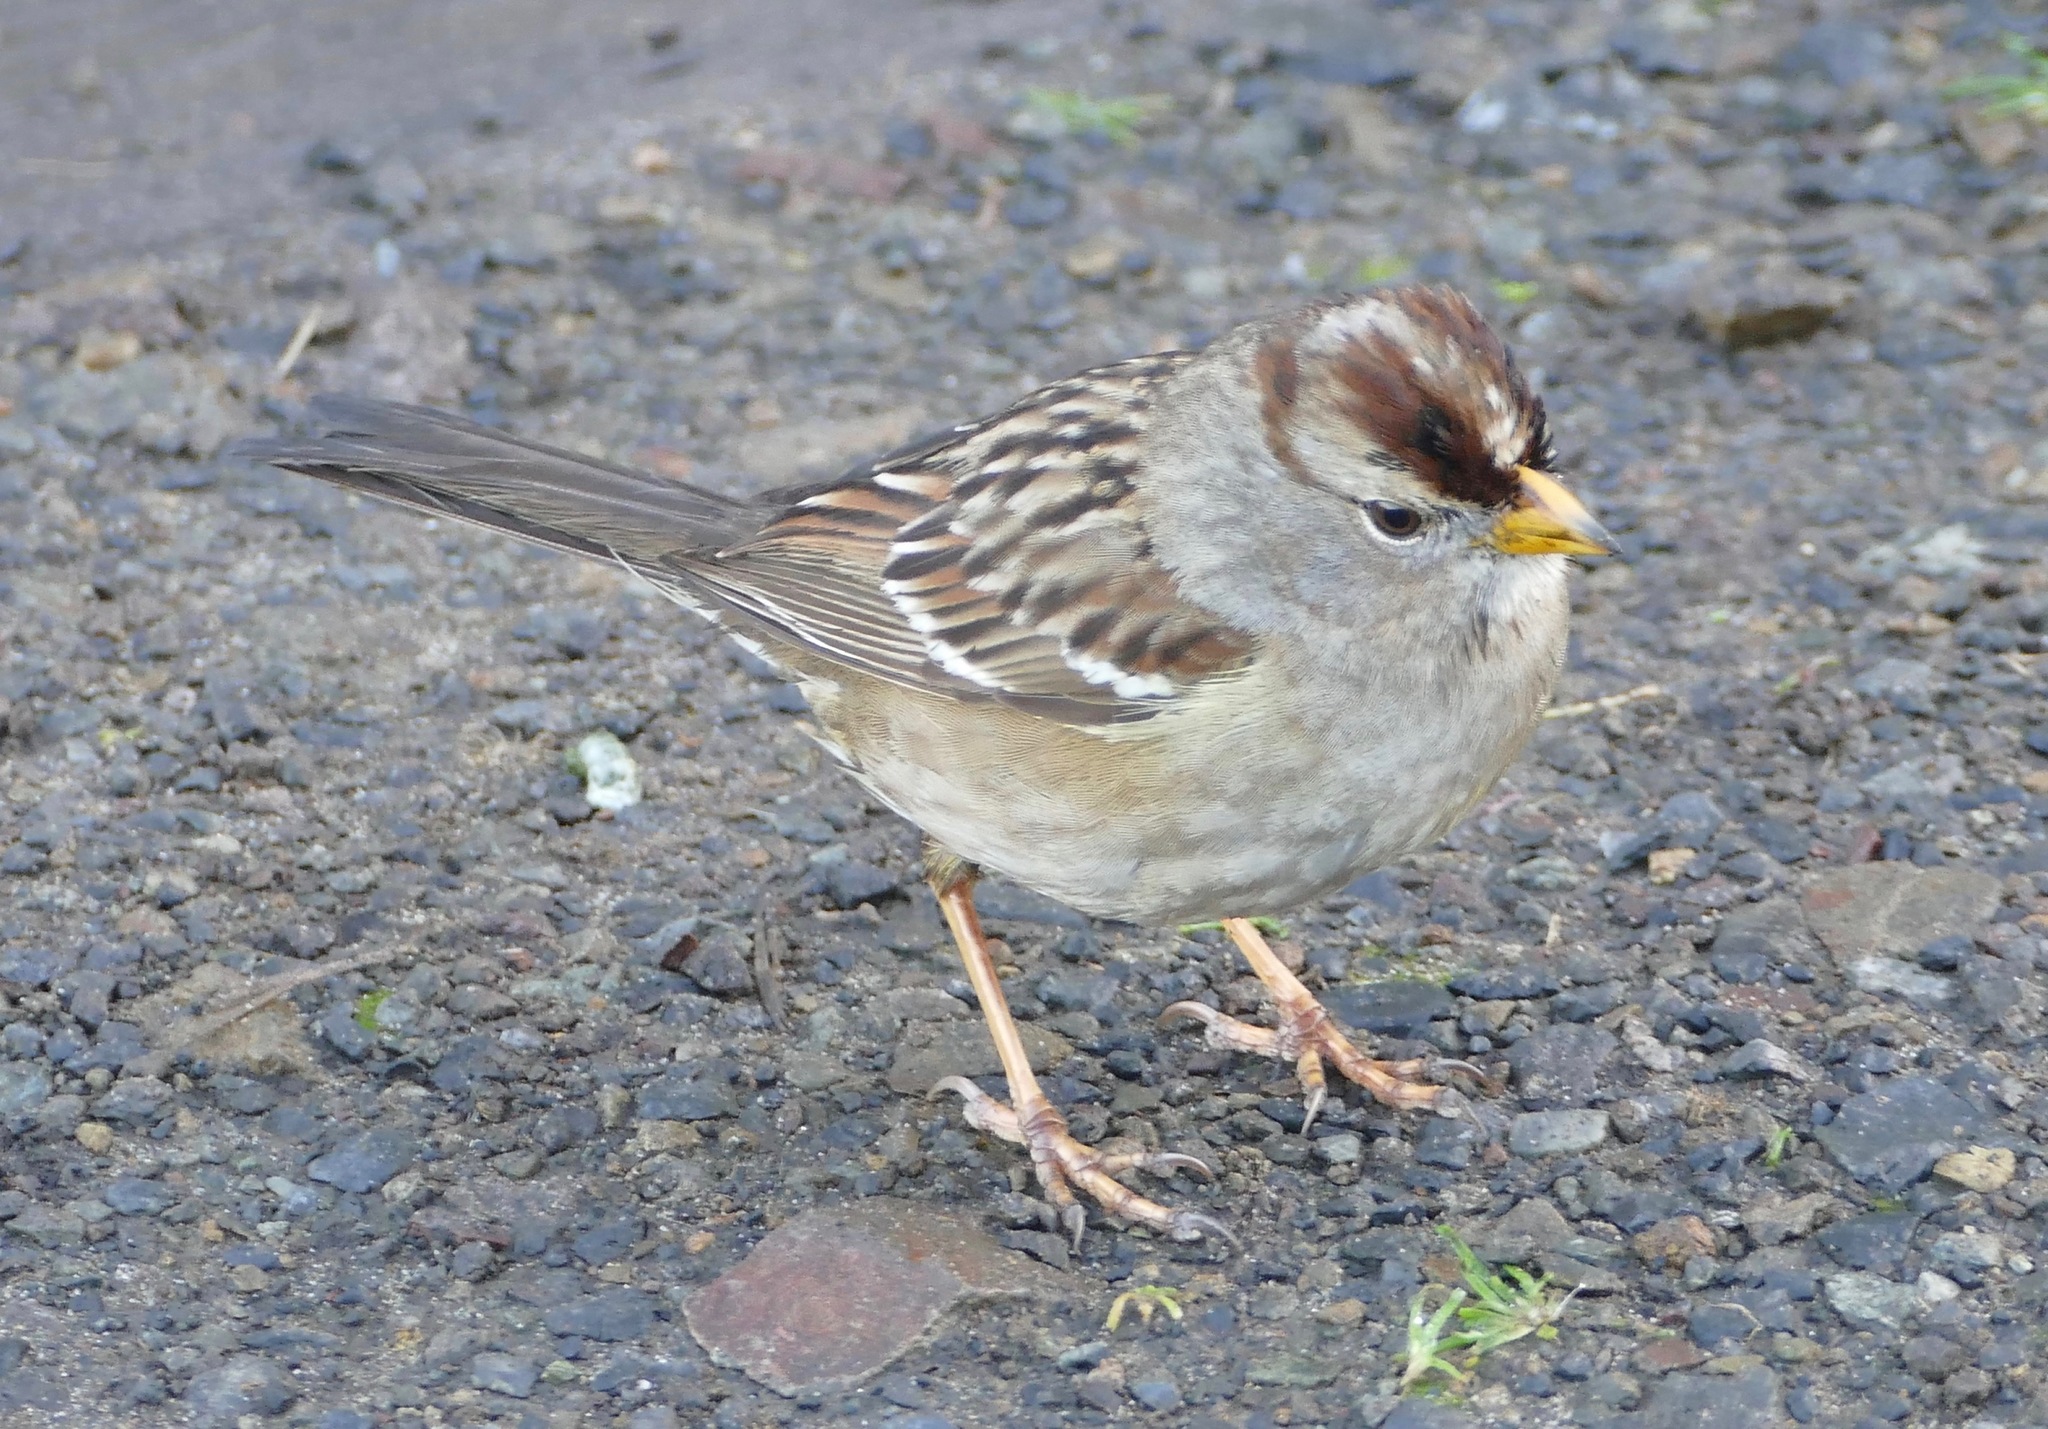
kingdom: Animalia
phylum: Chordata
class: Aves
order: Passeriformes
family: Passerellidae
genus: Zonotrichia
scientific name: Zonotrichia leucophrys
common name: White-crowned sparrow
